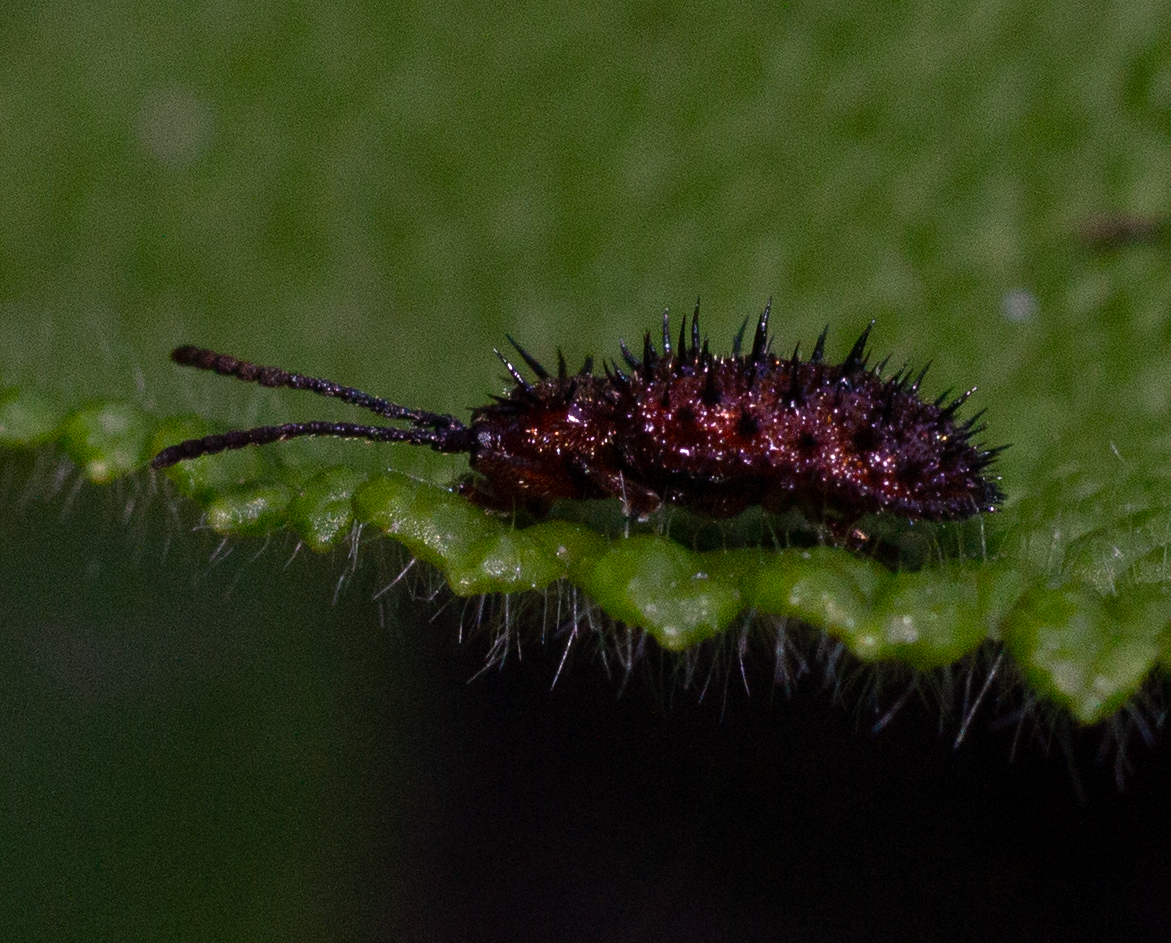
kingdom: Animalia
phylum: Arthropoda
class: Insecta
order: Coleoptera
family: Chrysomelidae
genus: Dicladispa
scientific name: Dicladispa testacea
